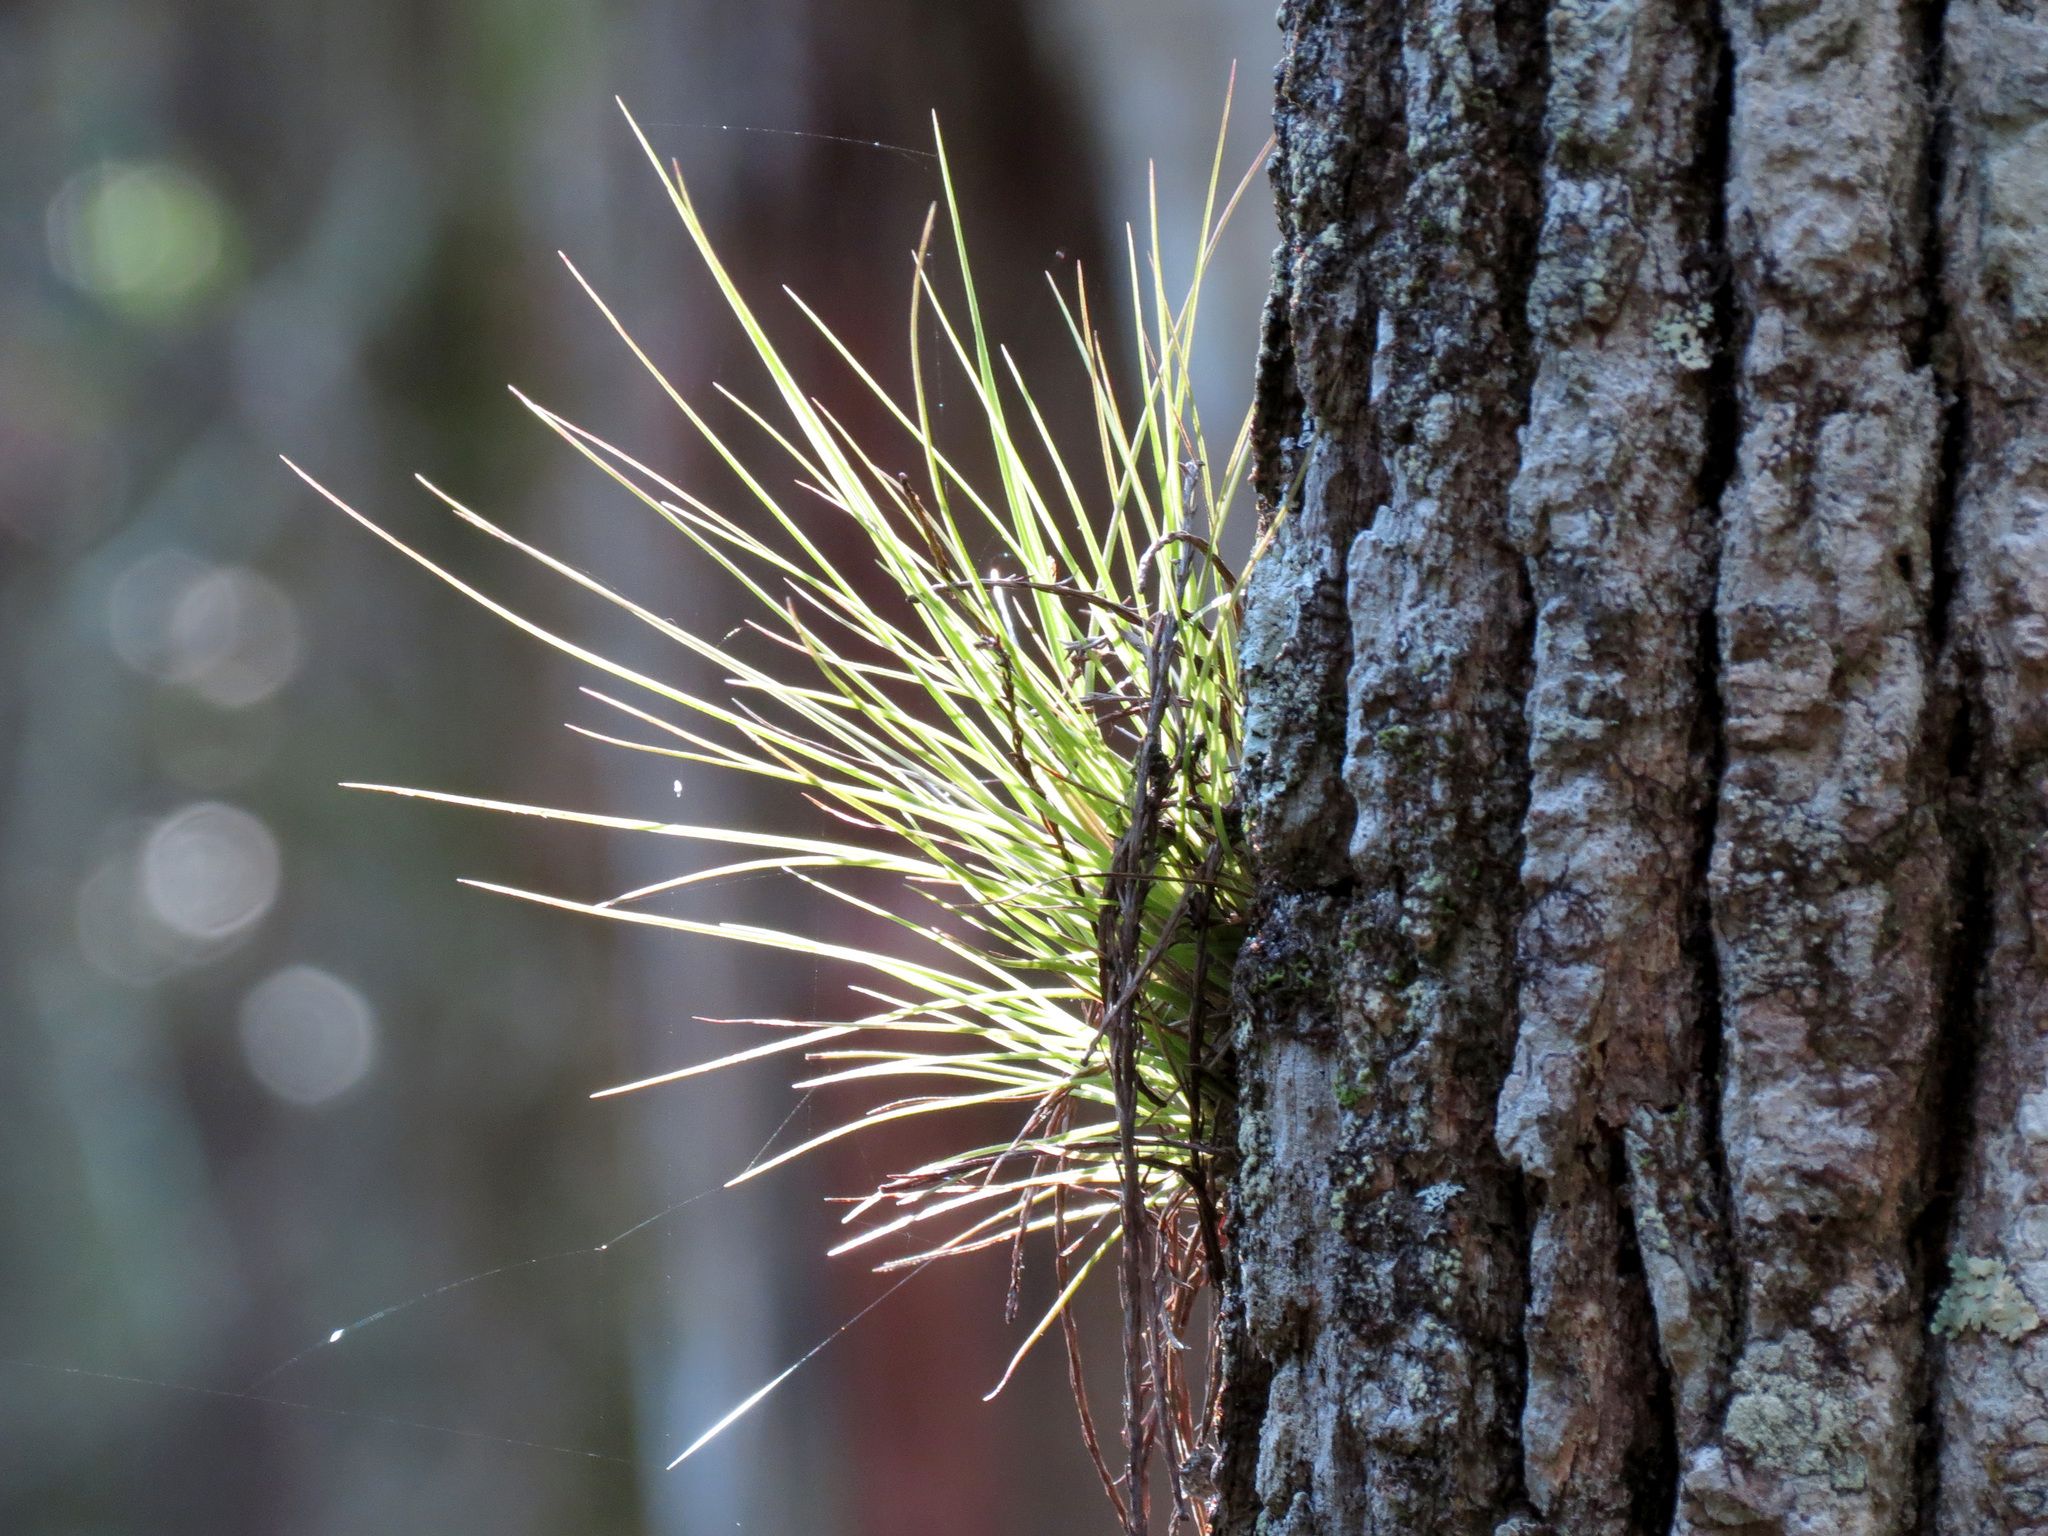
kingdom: Plantae
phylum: Tracheophyta
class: Liliopsida
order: Poales
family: Bromeliaceae
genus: Tillandsia
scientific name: Tillandsia setacea
